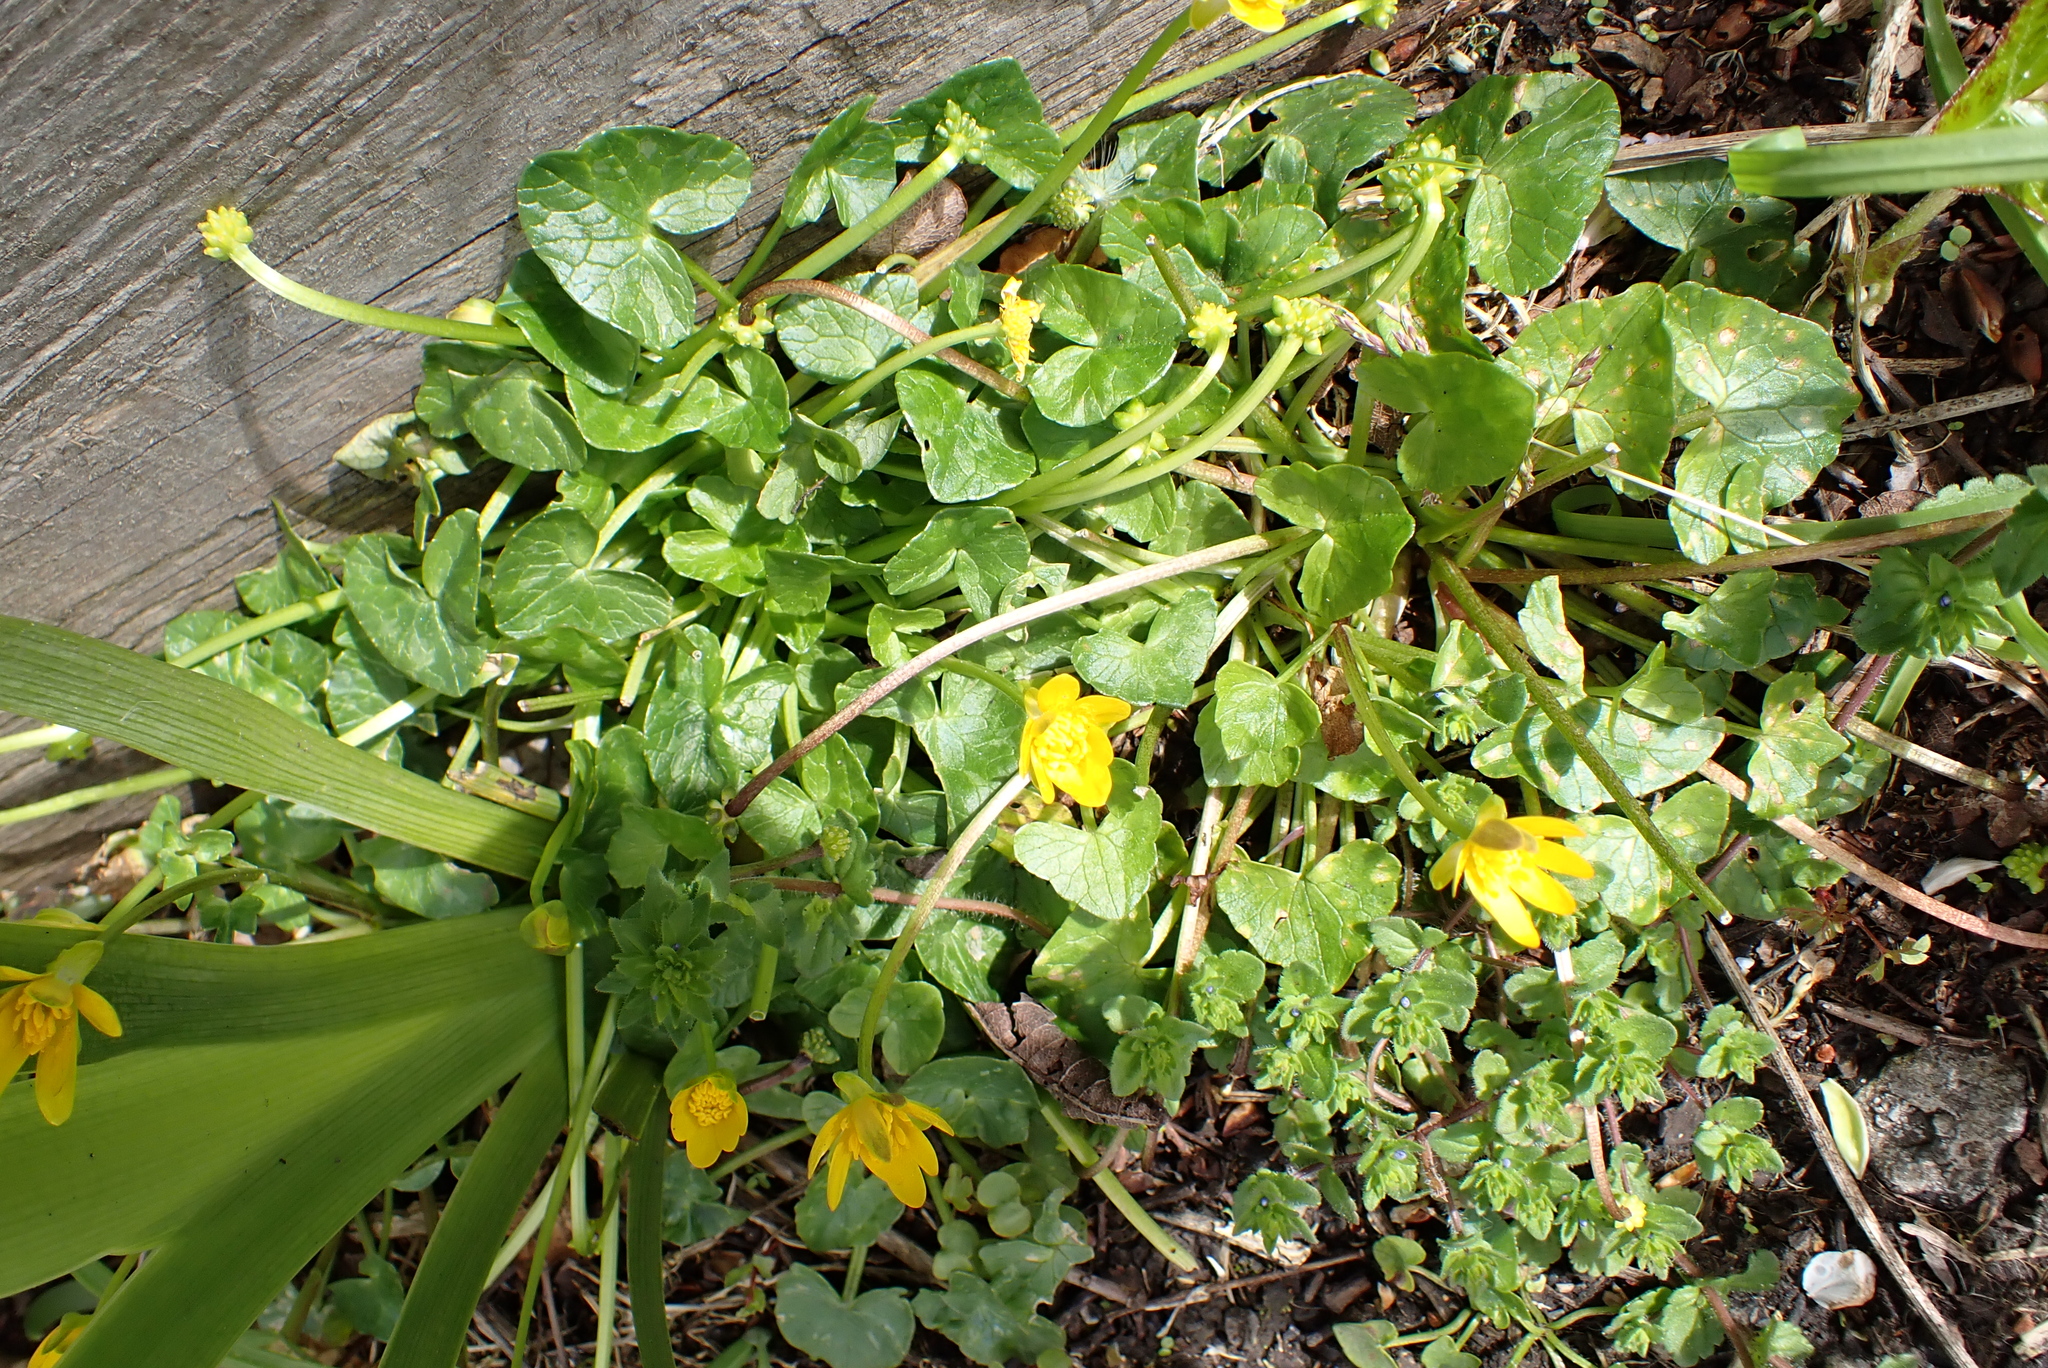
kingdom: Plantae
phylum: Tracheophyta
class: Magnoliopsida
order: Ranunculales
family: Ranunculaceae
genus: Ficaria
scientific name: Ficaria verna
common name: Lesser celandine
